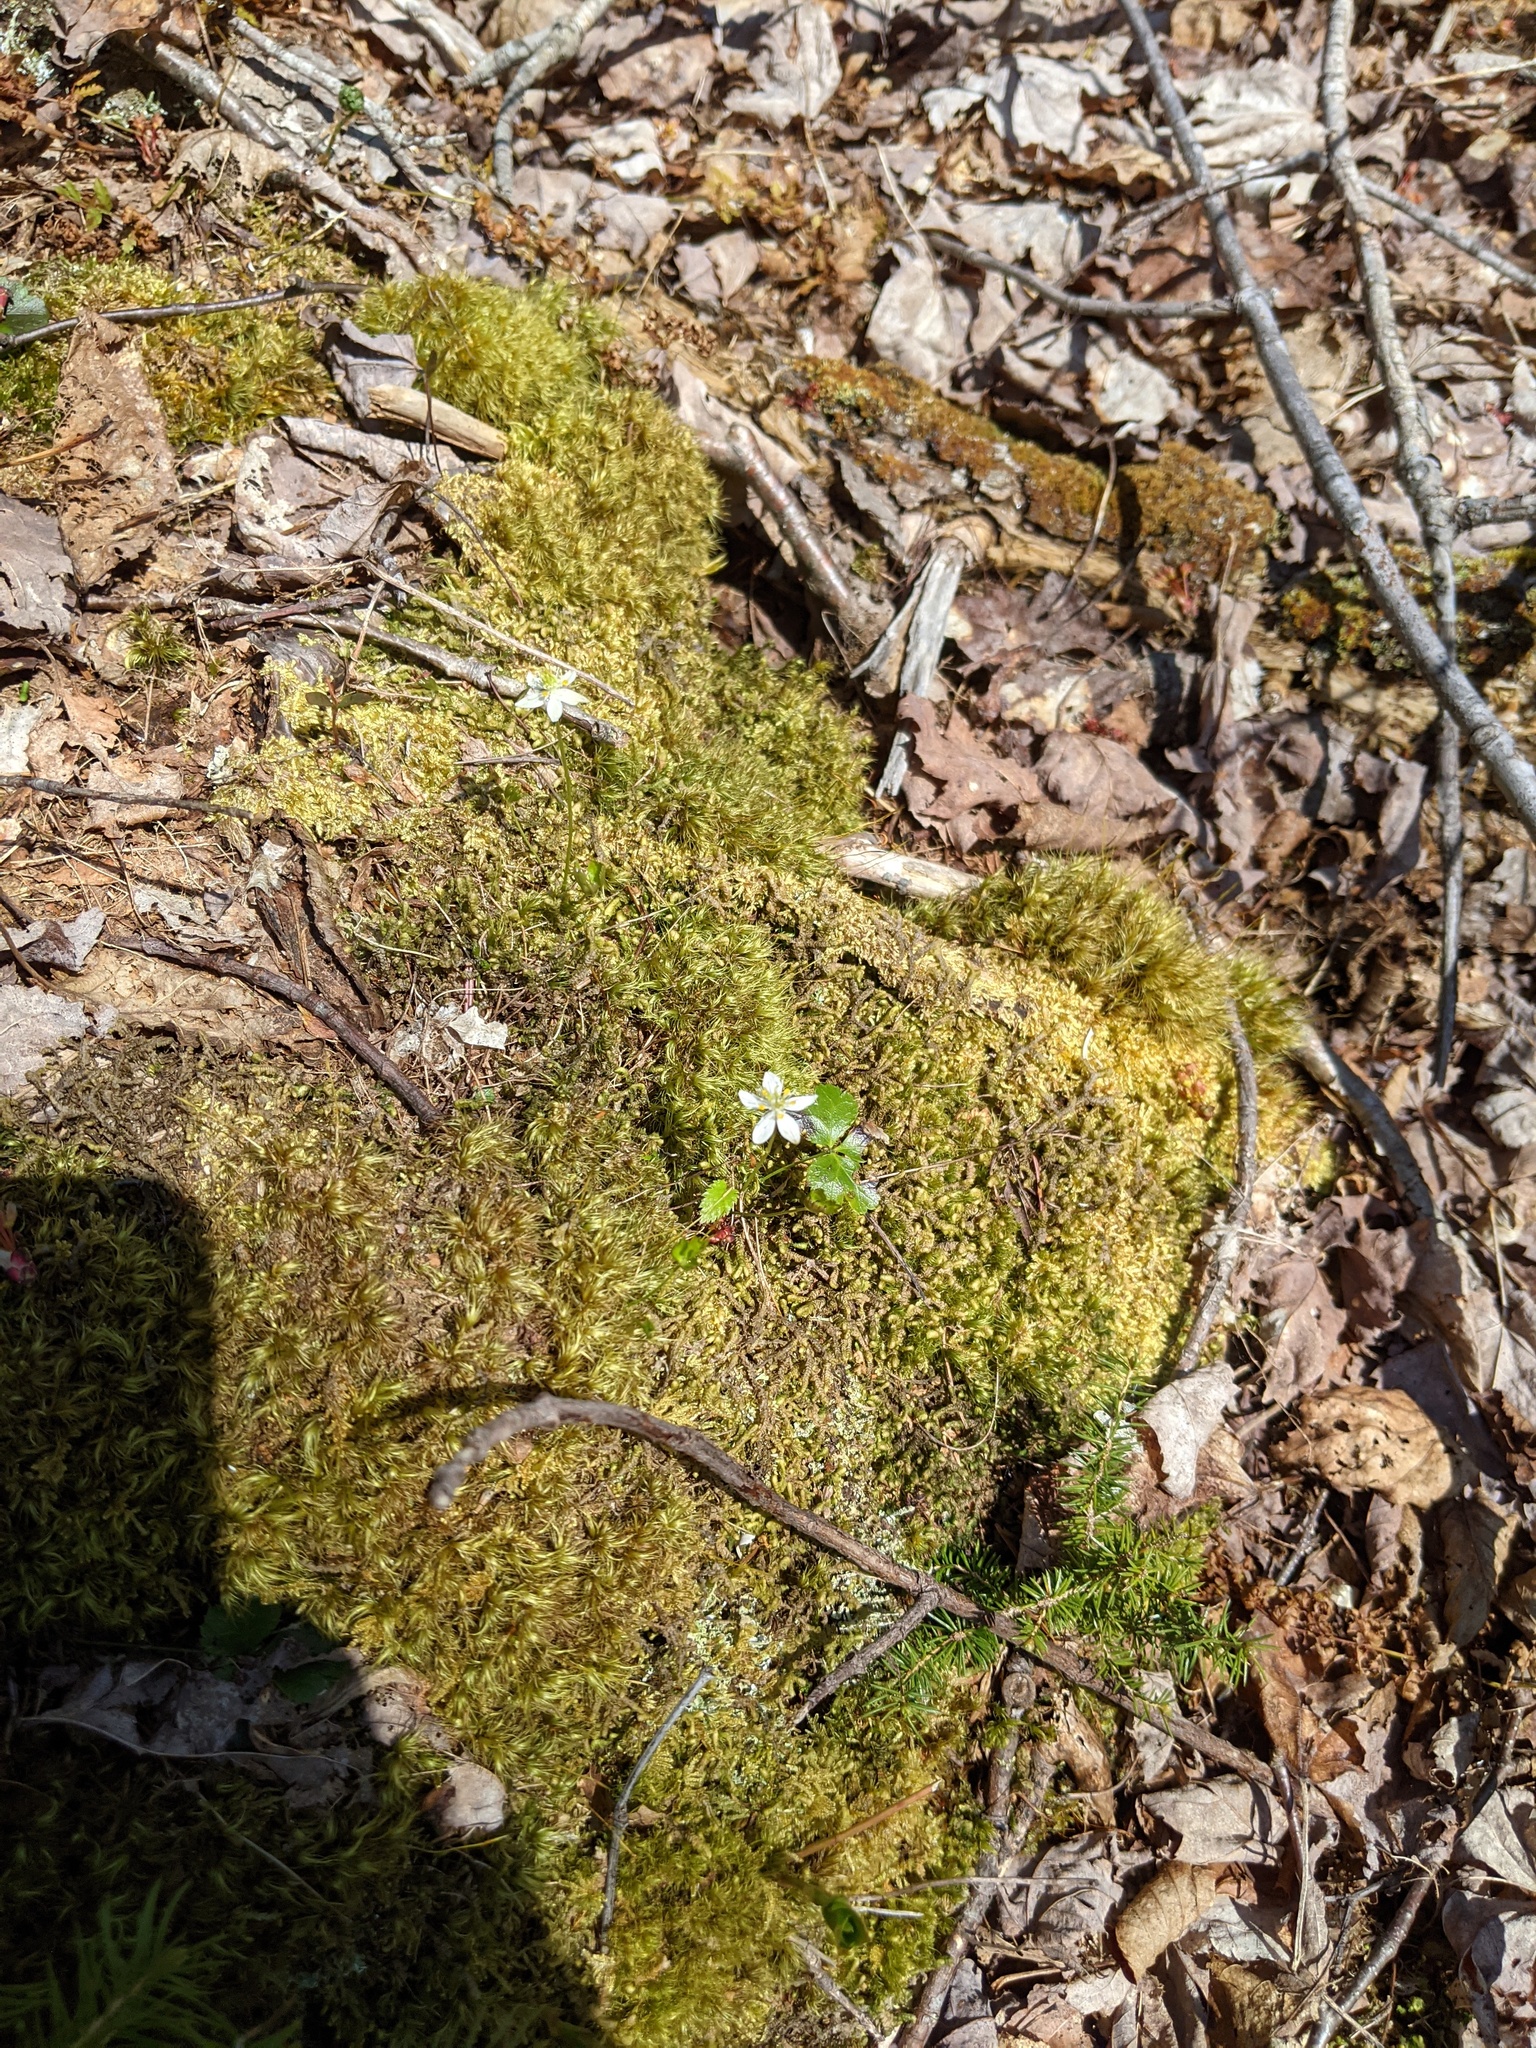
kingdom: Plantae
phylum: Tracheophyta
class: Magnoliopsida
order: Ranunculales
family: Ranunculaceae
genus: Coptis
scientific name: Coptis trifolia
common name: Canker-root
